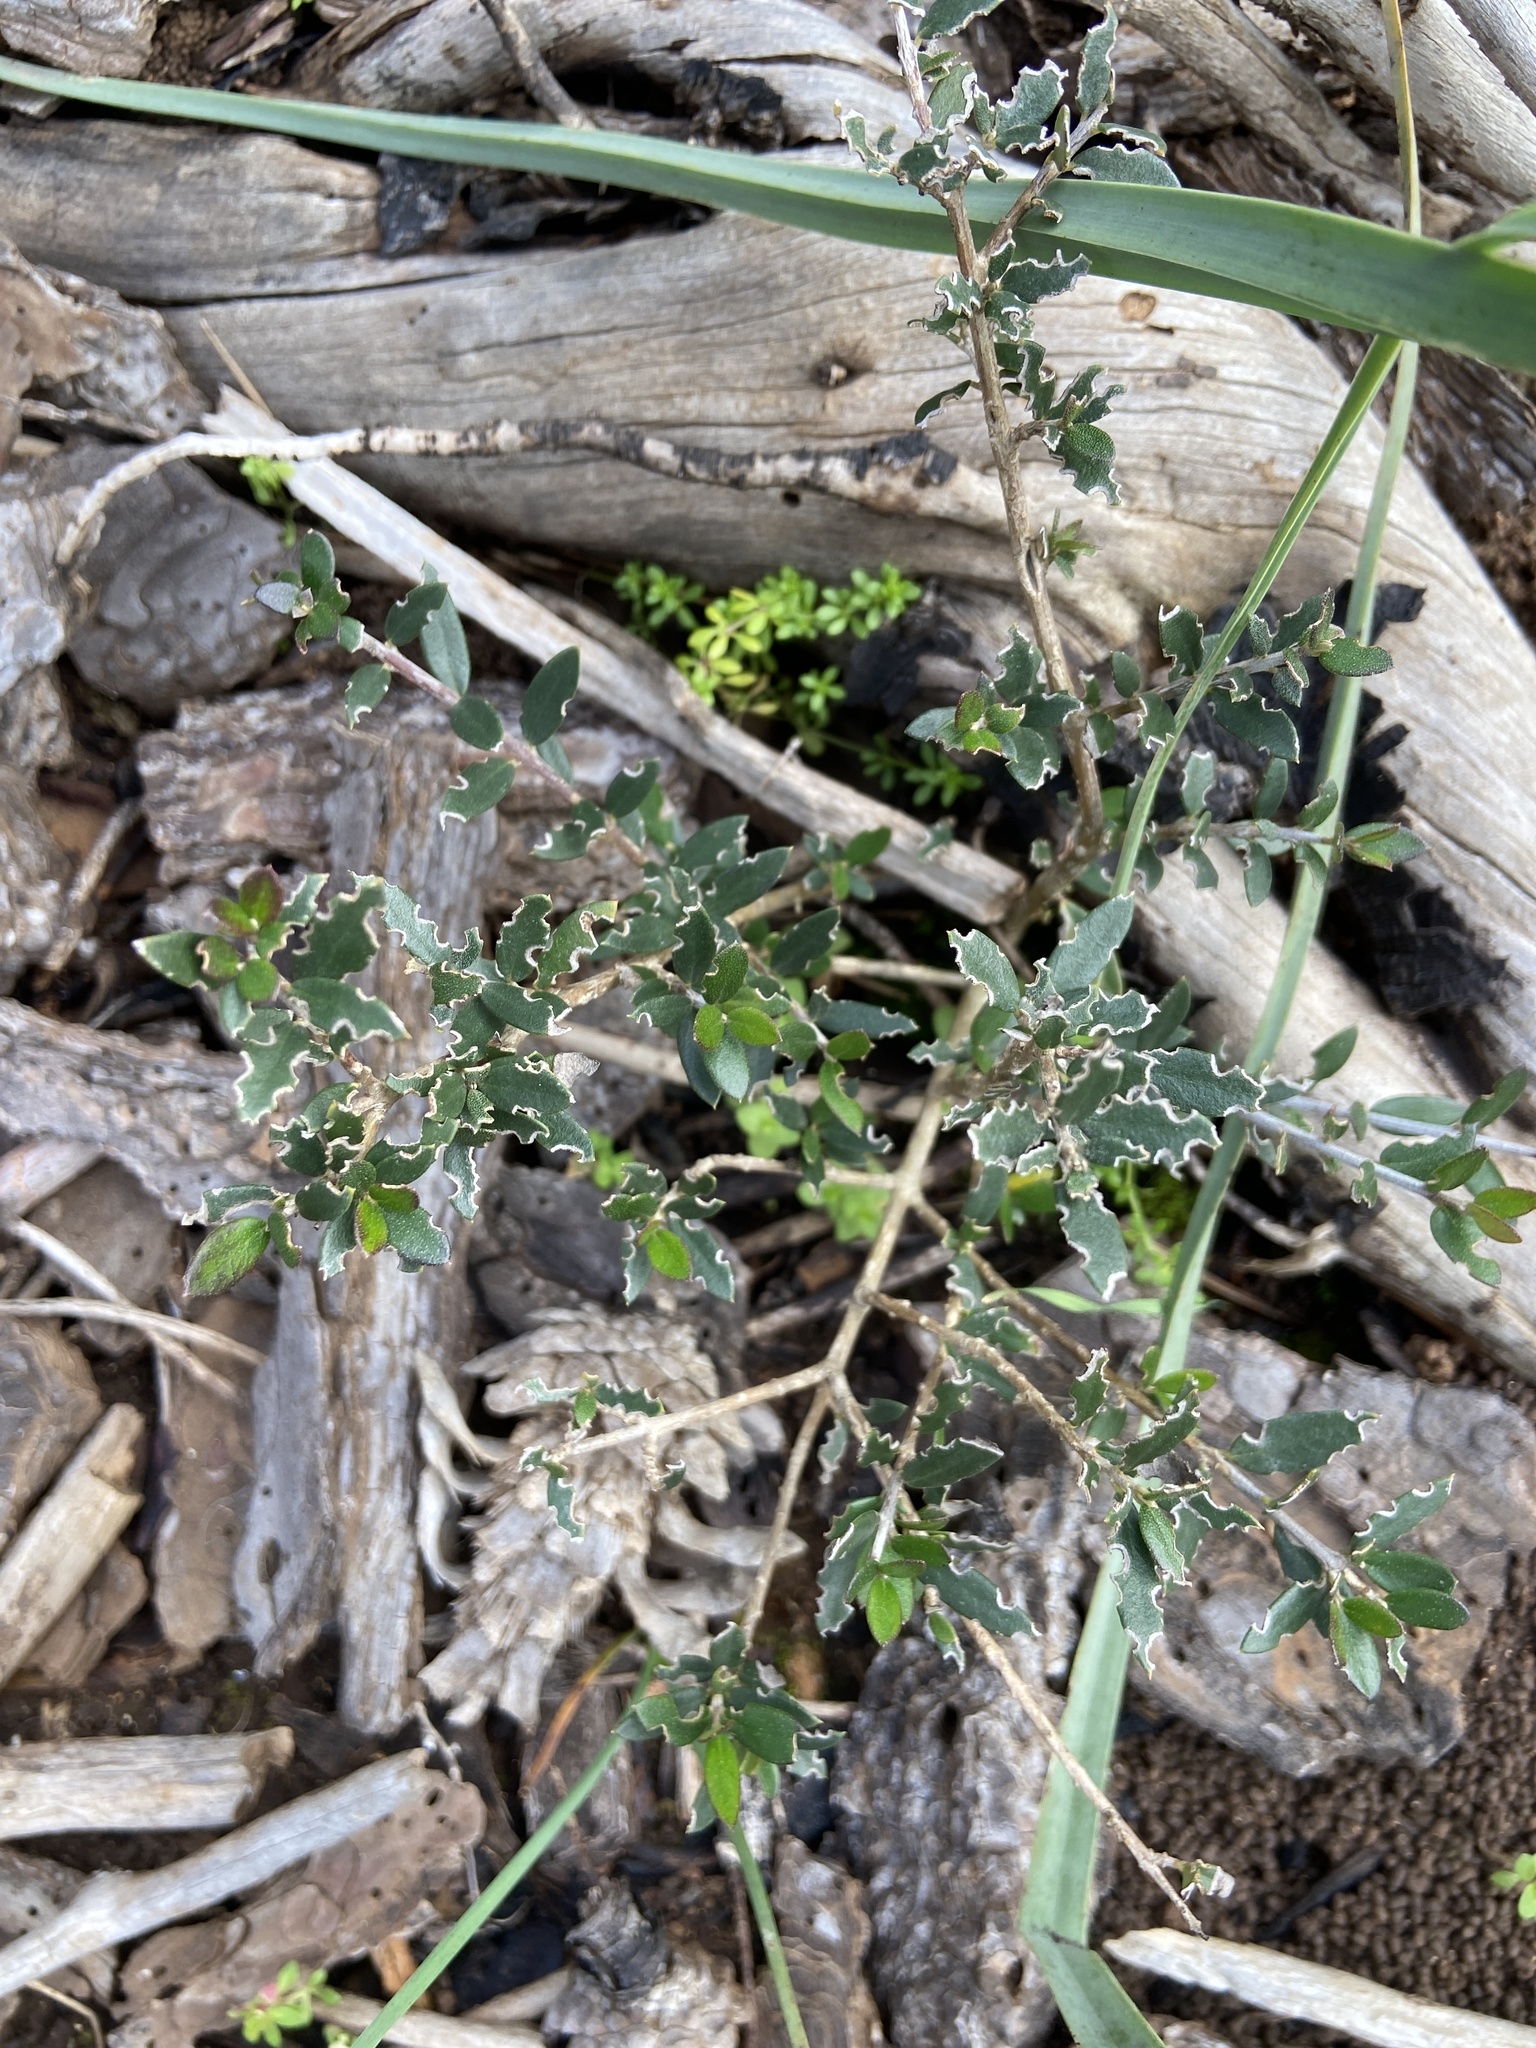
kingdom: Plantae
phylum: Tracheophyta
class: Magnoliopsida
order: Lamiales
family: Oleaceae
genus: Olea
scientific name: Olea europaea
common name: Olive
